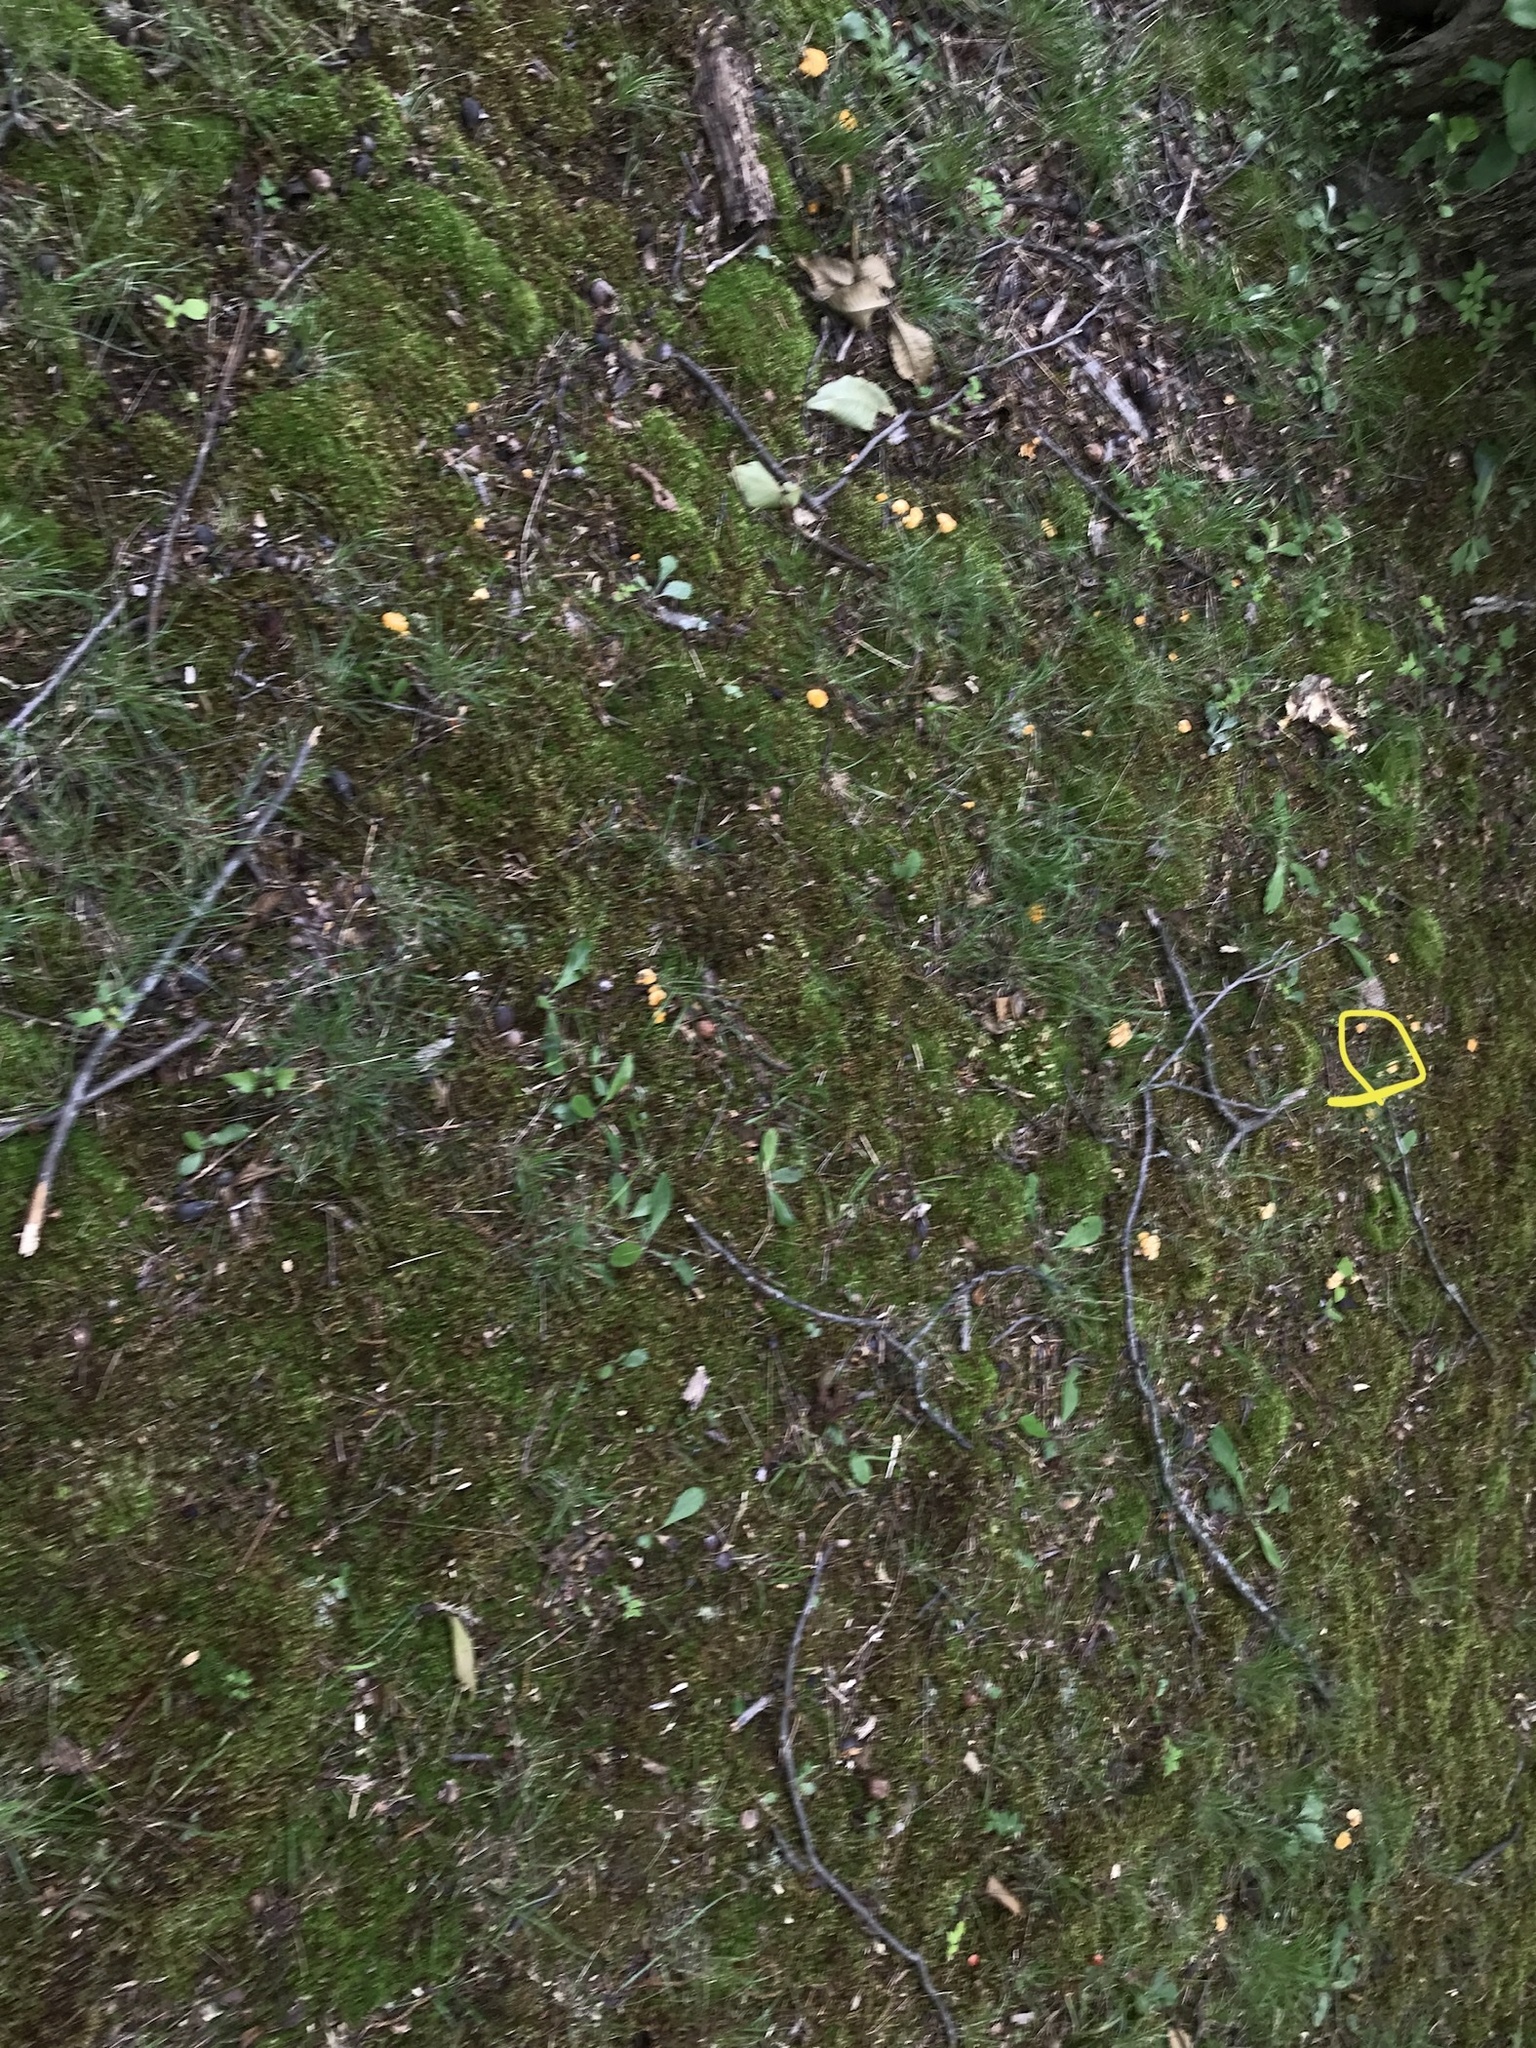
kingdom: Fungi
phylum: Basidiomycota
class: Agaricomycetes
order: Cantharellales
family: Hydnaceae
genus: Cantharellus
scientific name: Cantharellus flavolateritius
